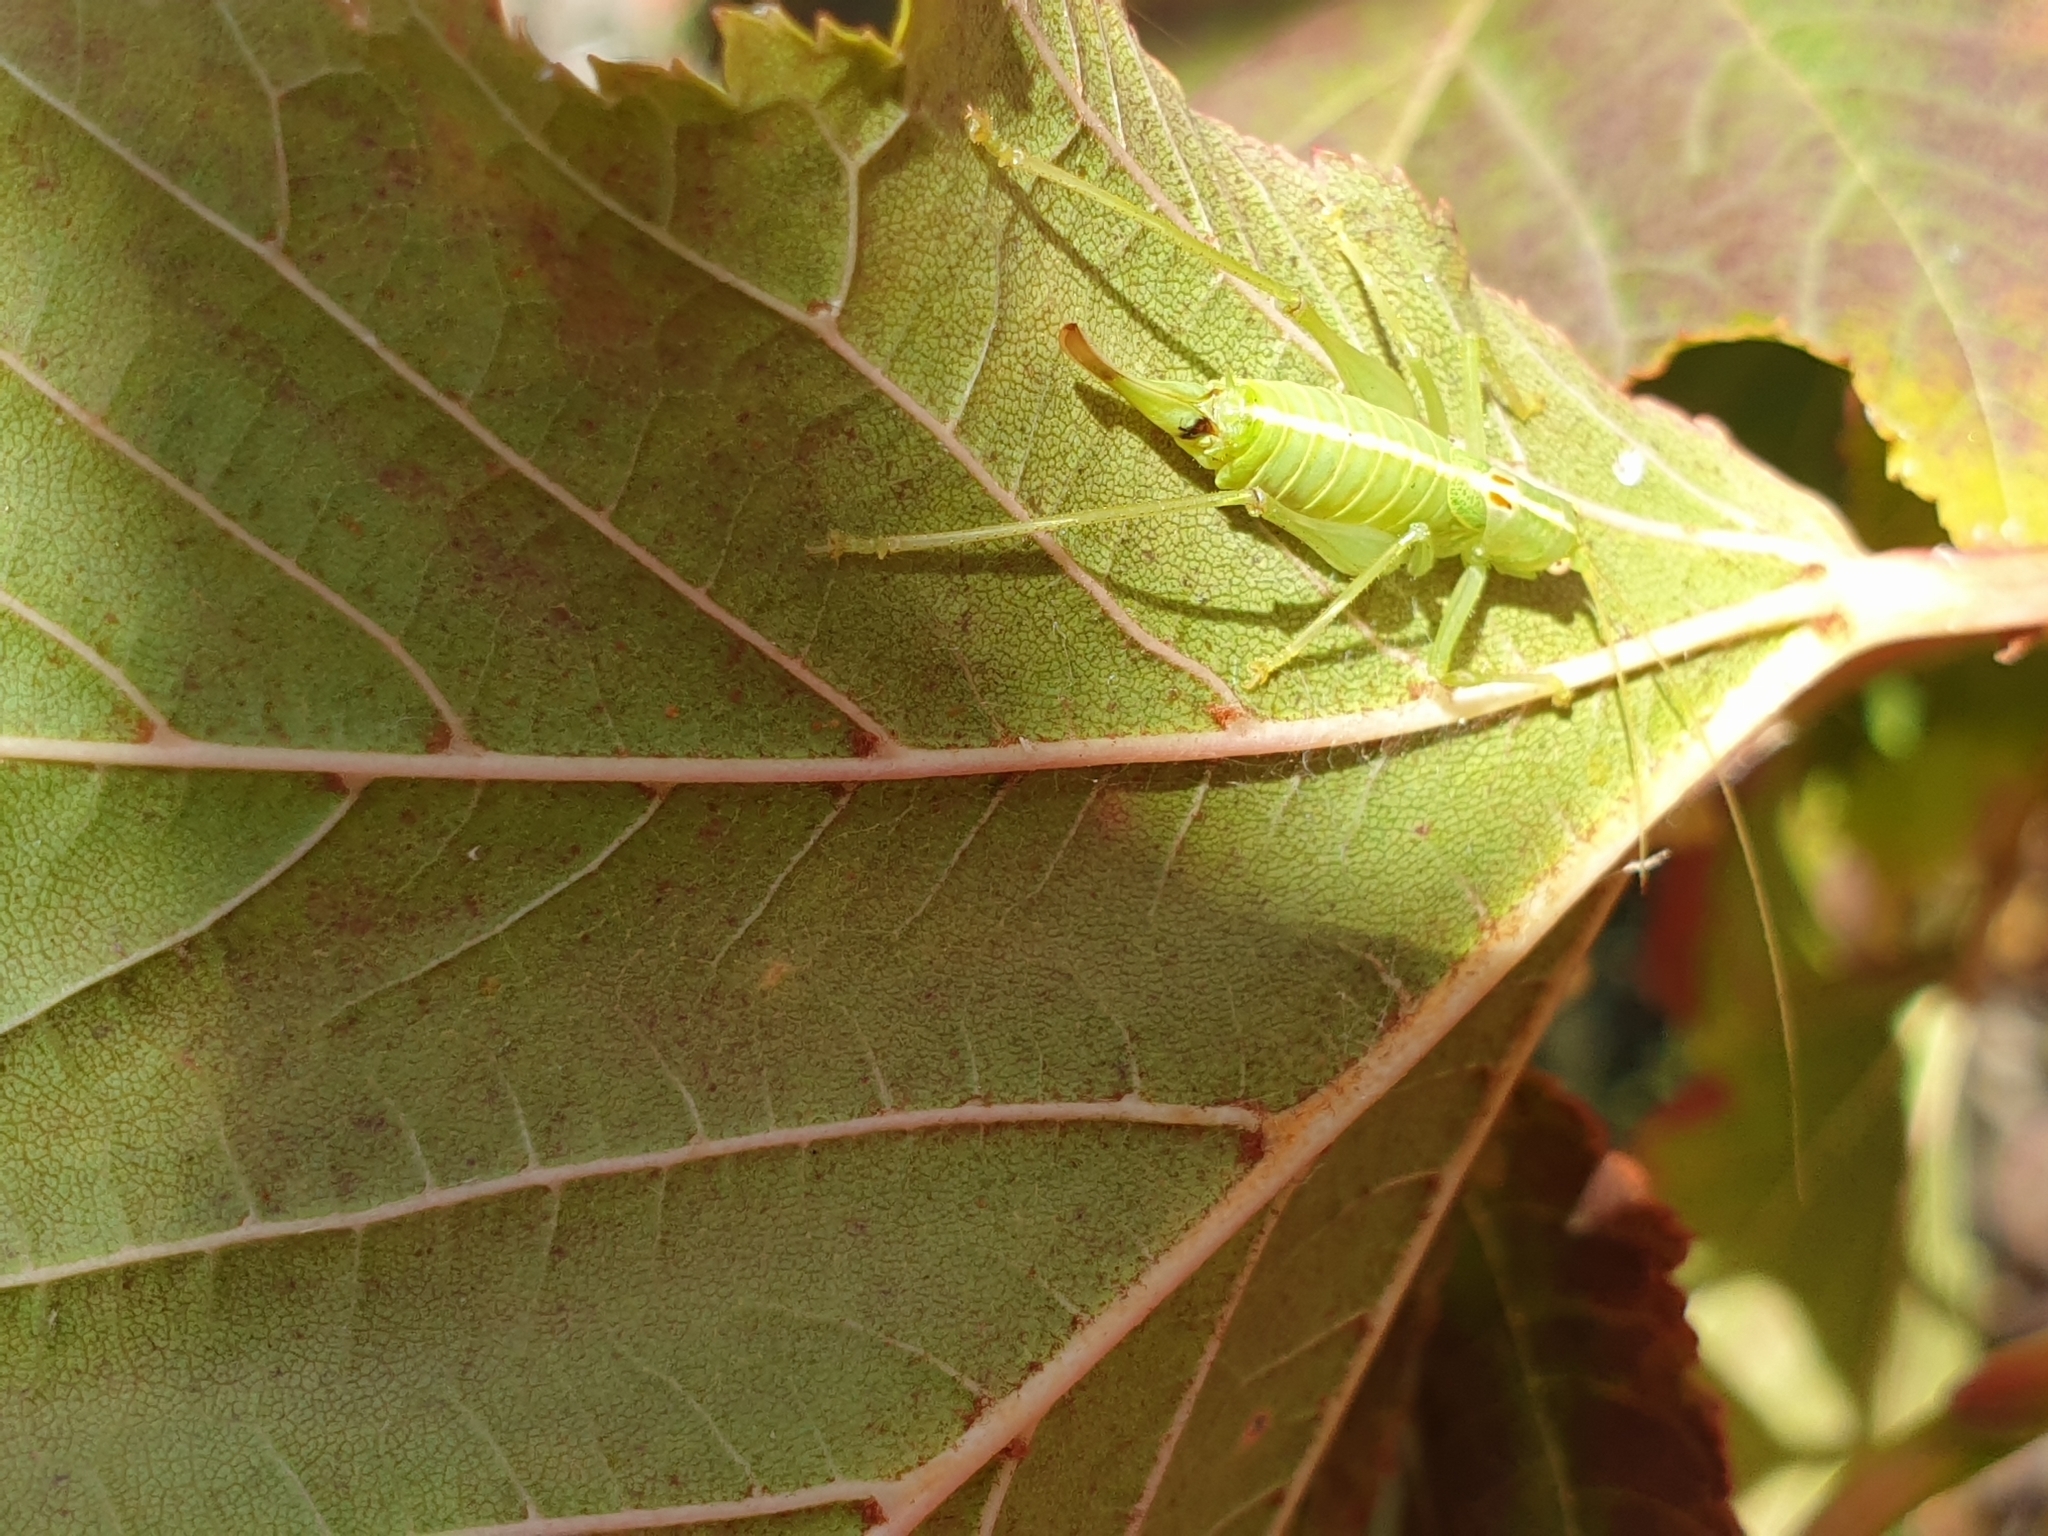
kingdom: Animalia
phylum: Arthropoda
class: Insecta
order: Orthoptera
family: Tettigoniidae
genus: Meconema
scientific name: Meconema meridionale
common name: Southern oak bush-cricket
